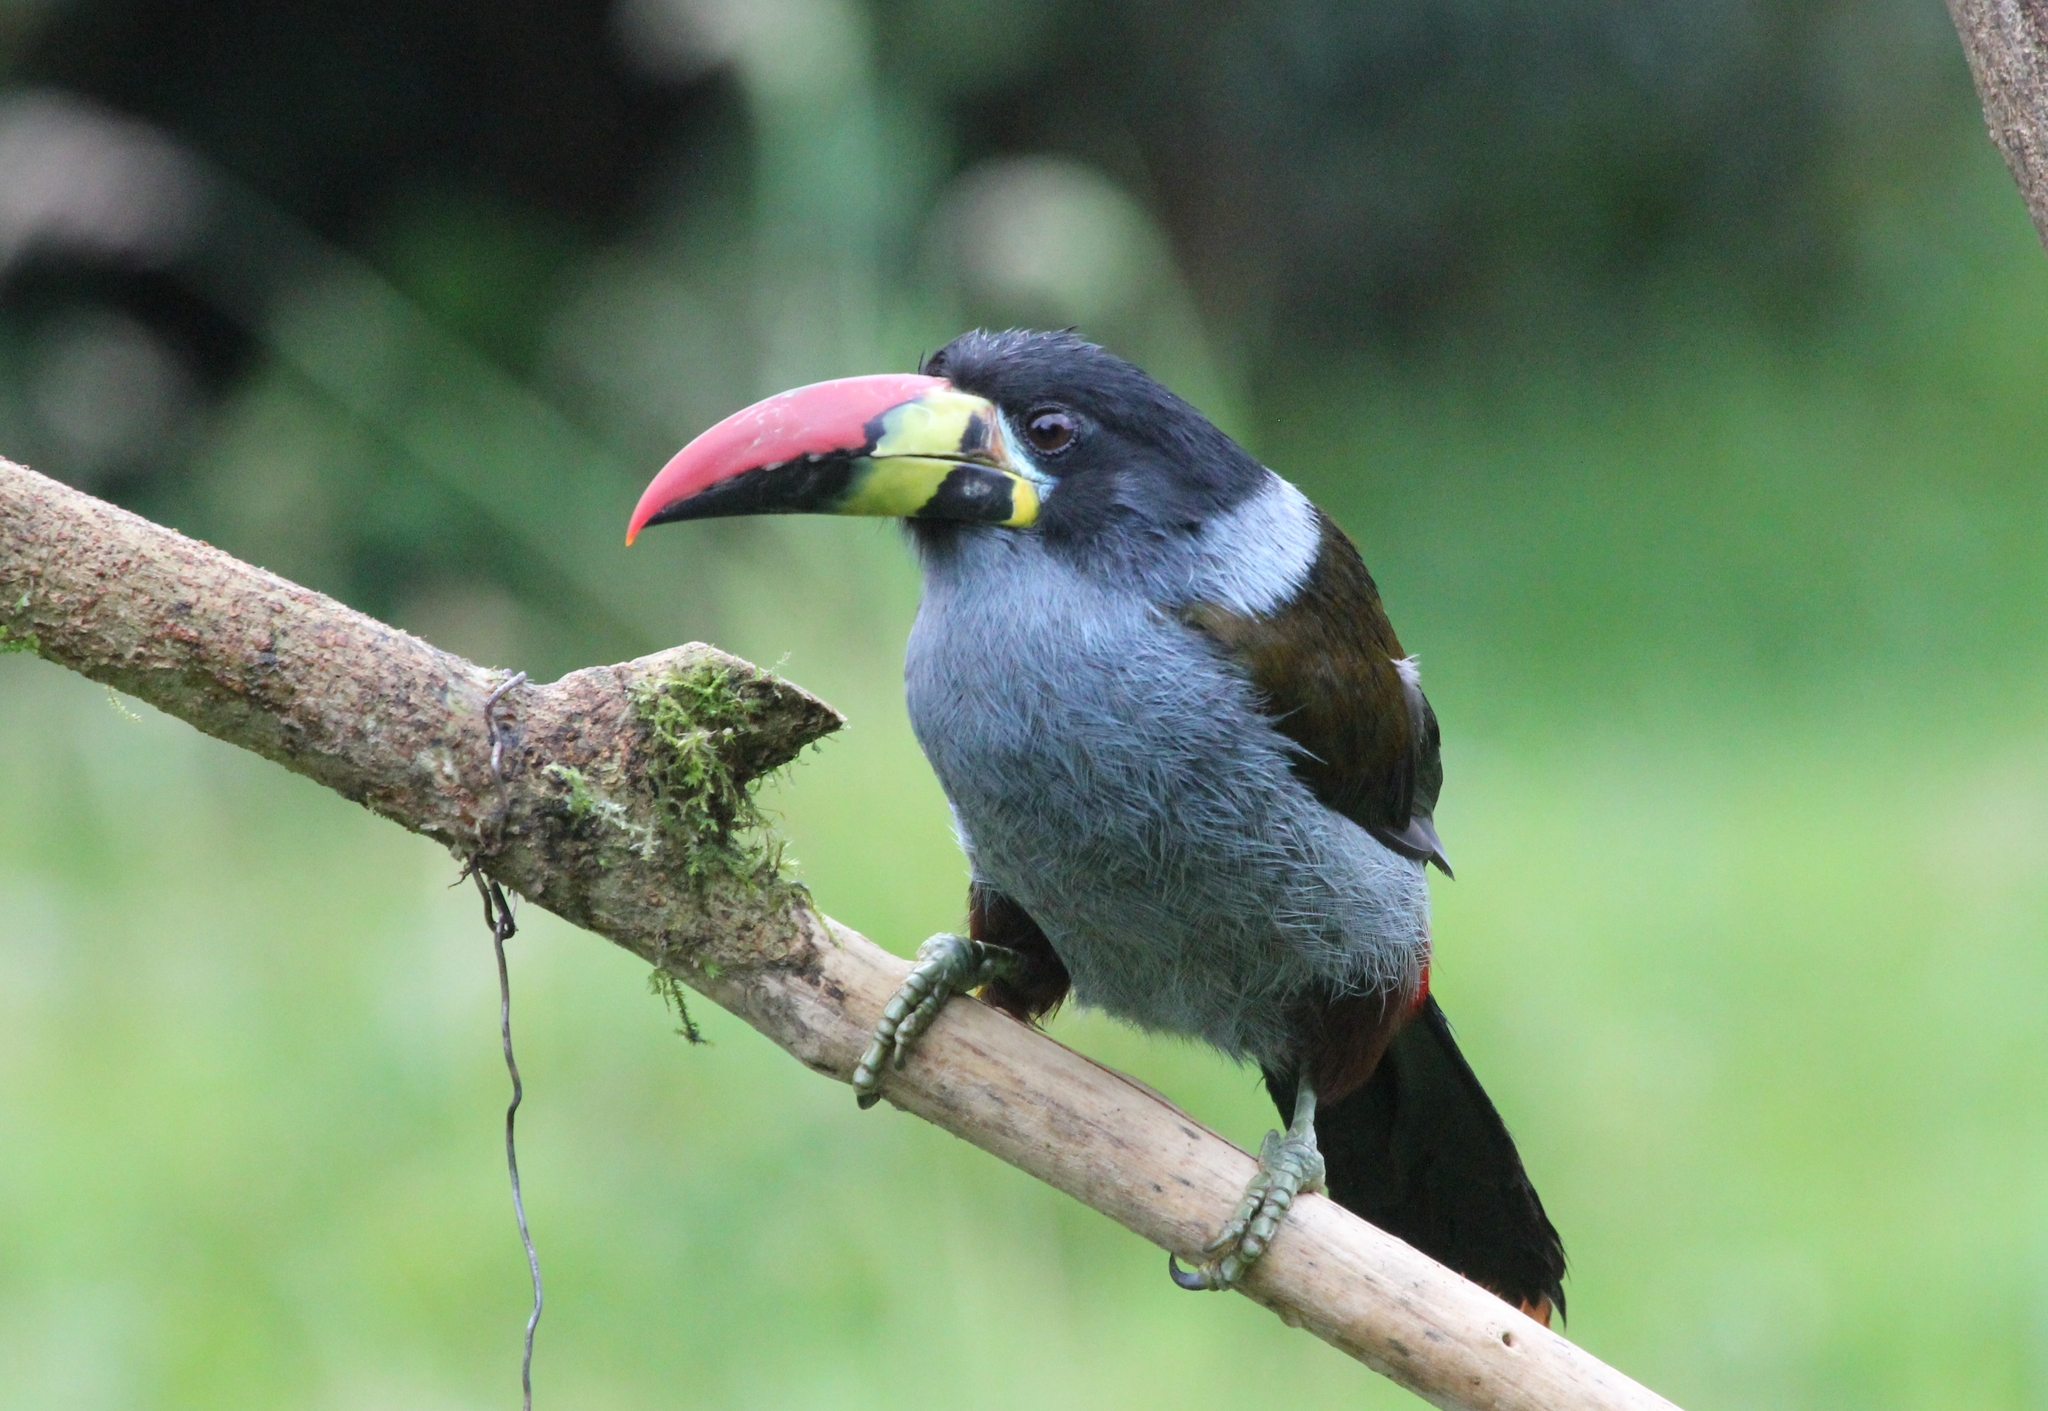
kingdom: Animalia
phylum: Chordata
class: Aves
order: Piciformes
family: Ramphastidae
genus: Andigena
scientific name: Andigena hypoglauca
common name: Grey-breasted mountain toucan
